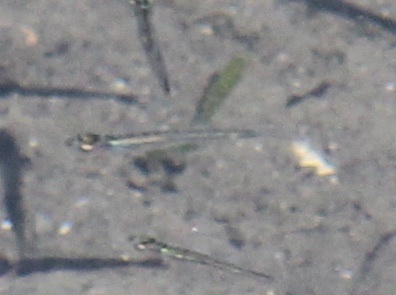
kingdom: Animalia
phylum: Chordata
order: Atheriniformes
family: Atherinopsidae
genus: Atherinopsis
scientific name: Atherinopsis californiensis
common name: Jack silverside
